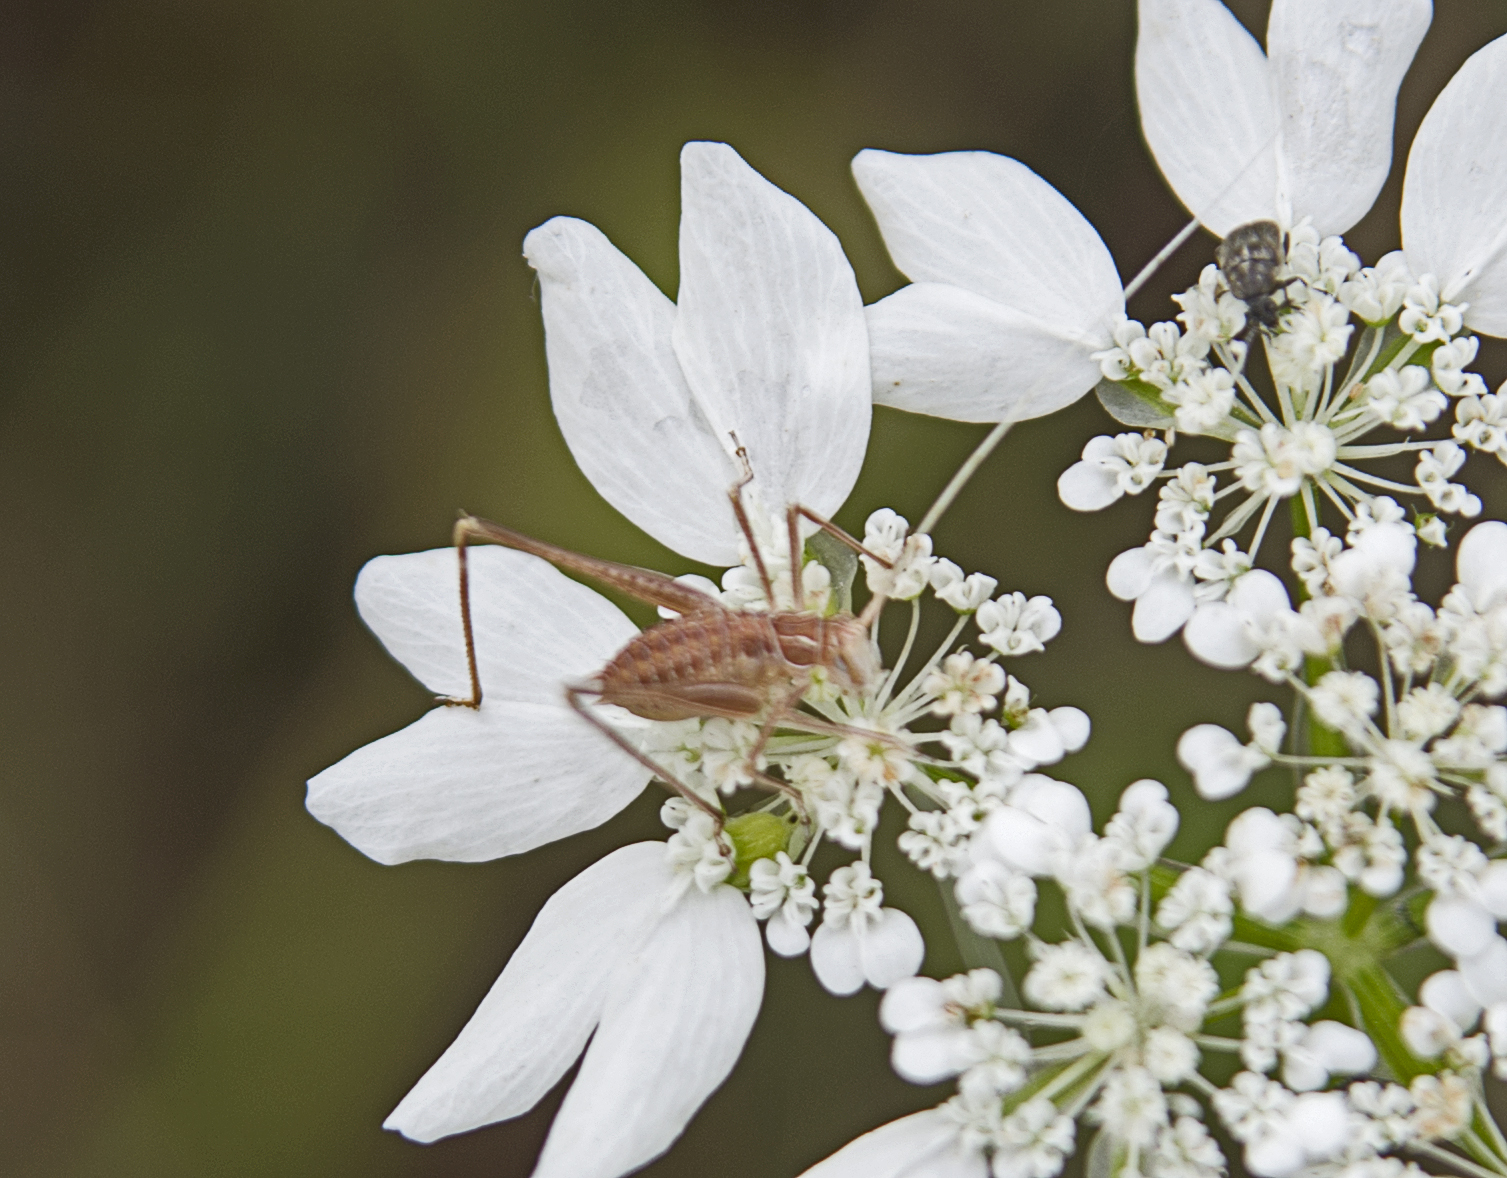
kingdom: Animalia
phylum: Arthropoda
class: Insecta
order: Orthoptera
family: Tettigoniidae
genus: Tylopsis
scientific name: Tylopsis lilifolia
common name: Lily bush-cricket
